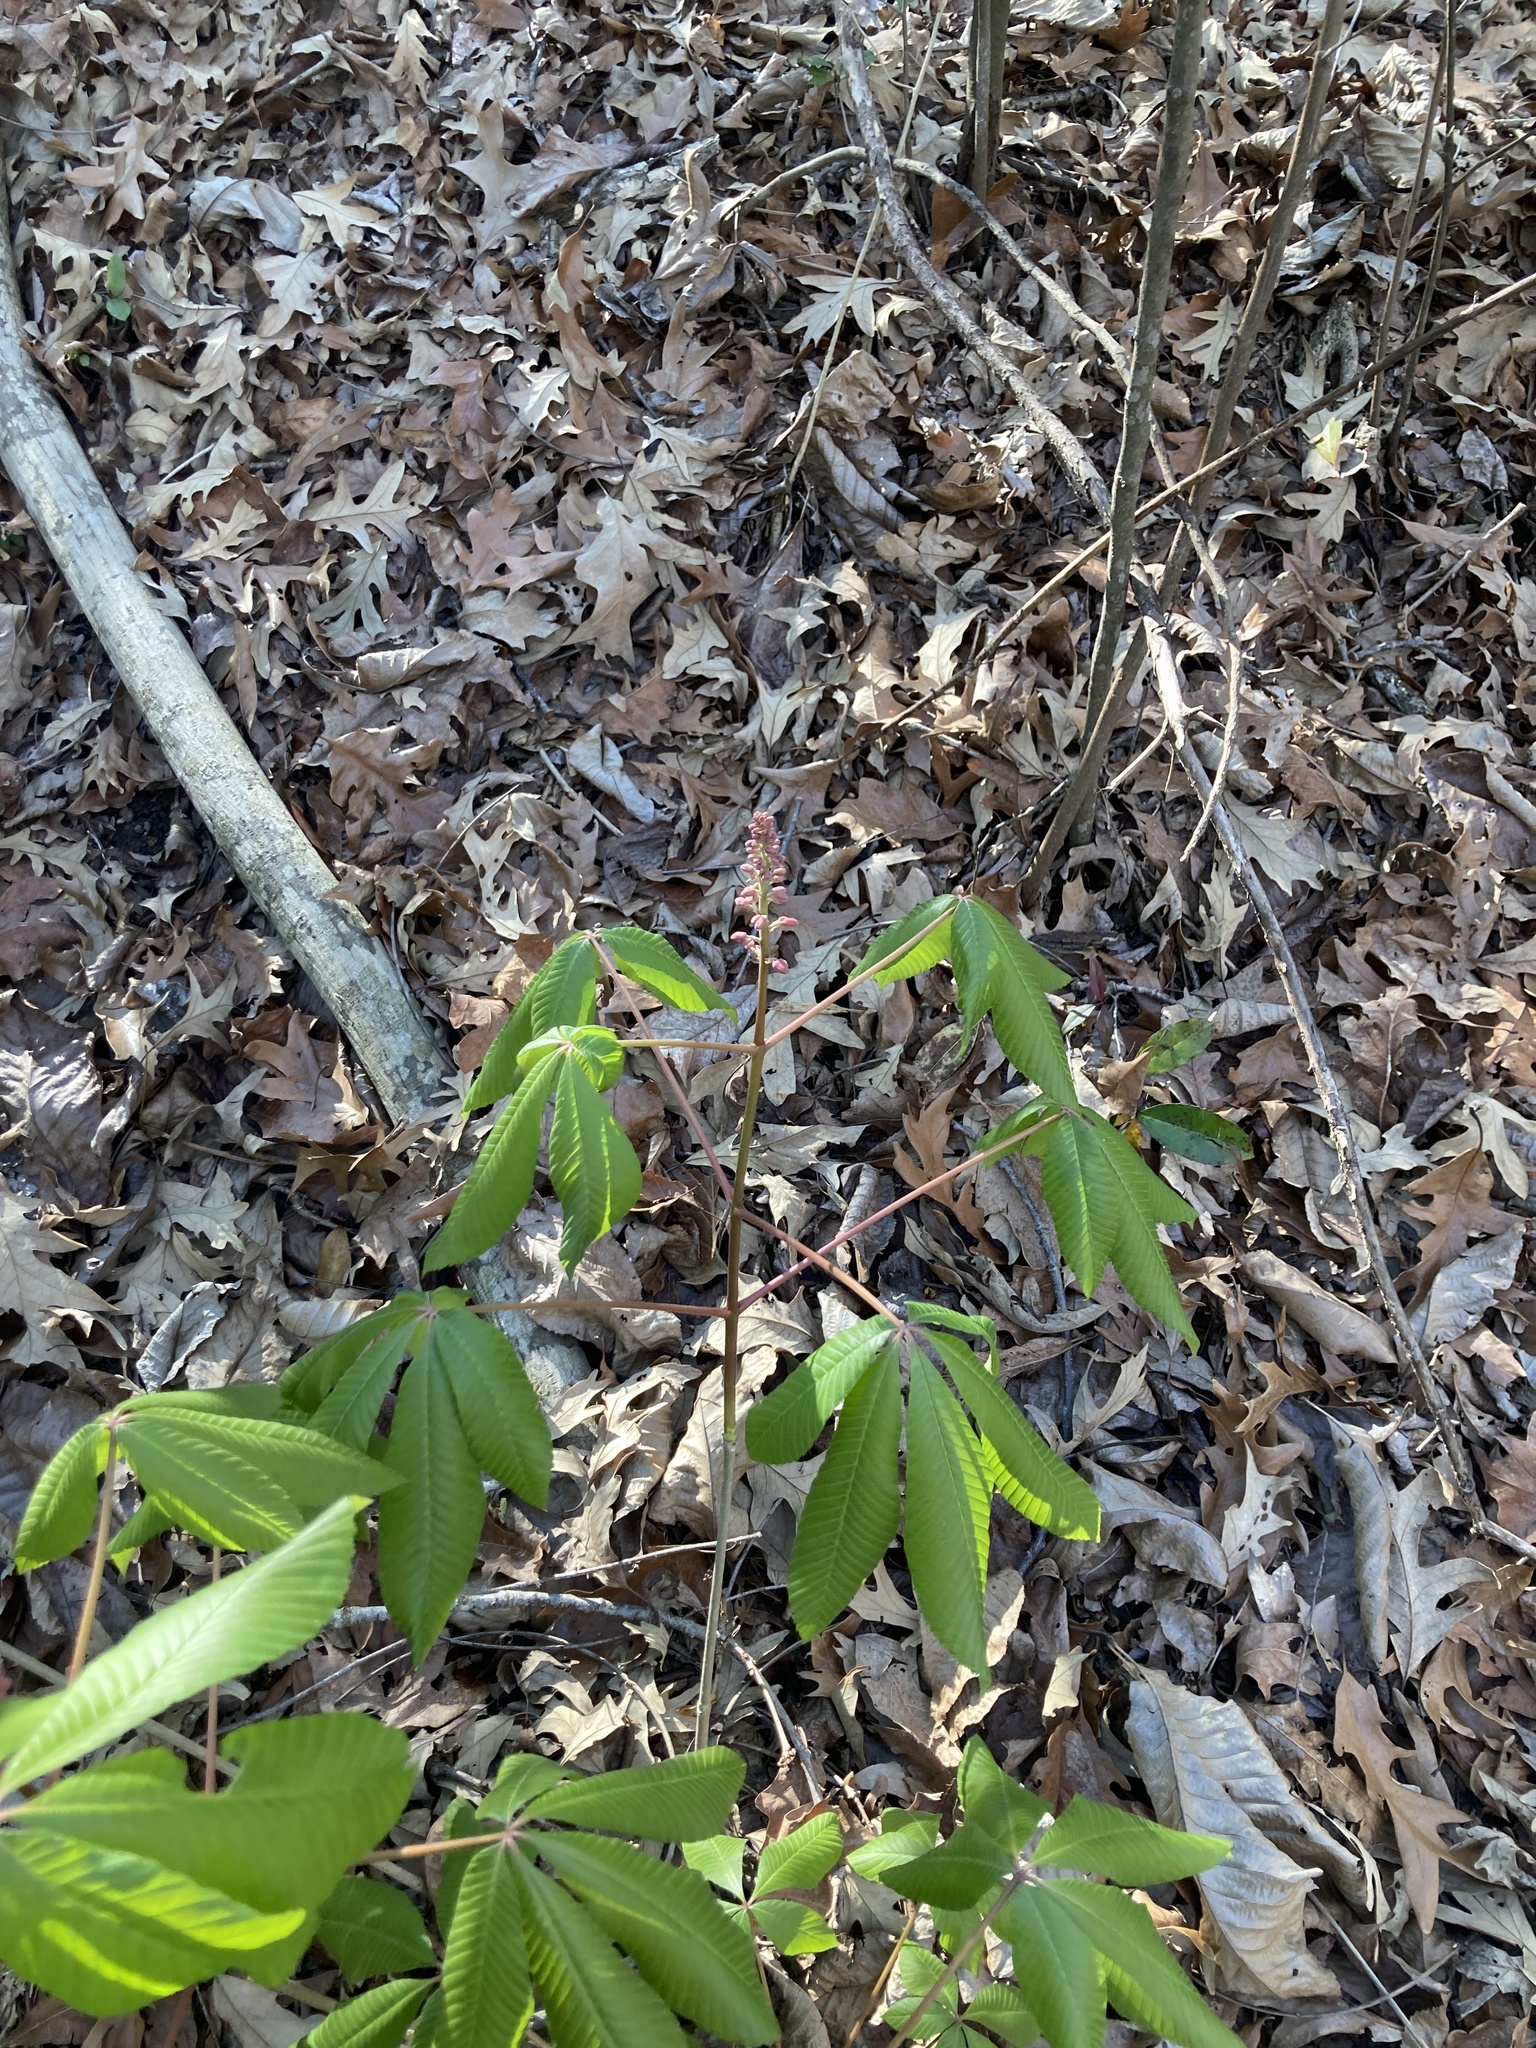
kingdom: Plantae
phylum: Tracheophyta
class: Magnoliopsida
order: Sapindales
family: Sapindaceae
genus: Aesculus
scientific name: Aesculus pavia
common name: Red buckeye
